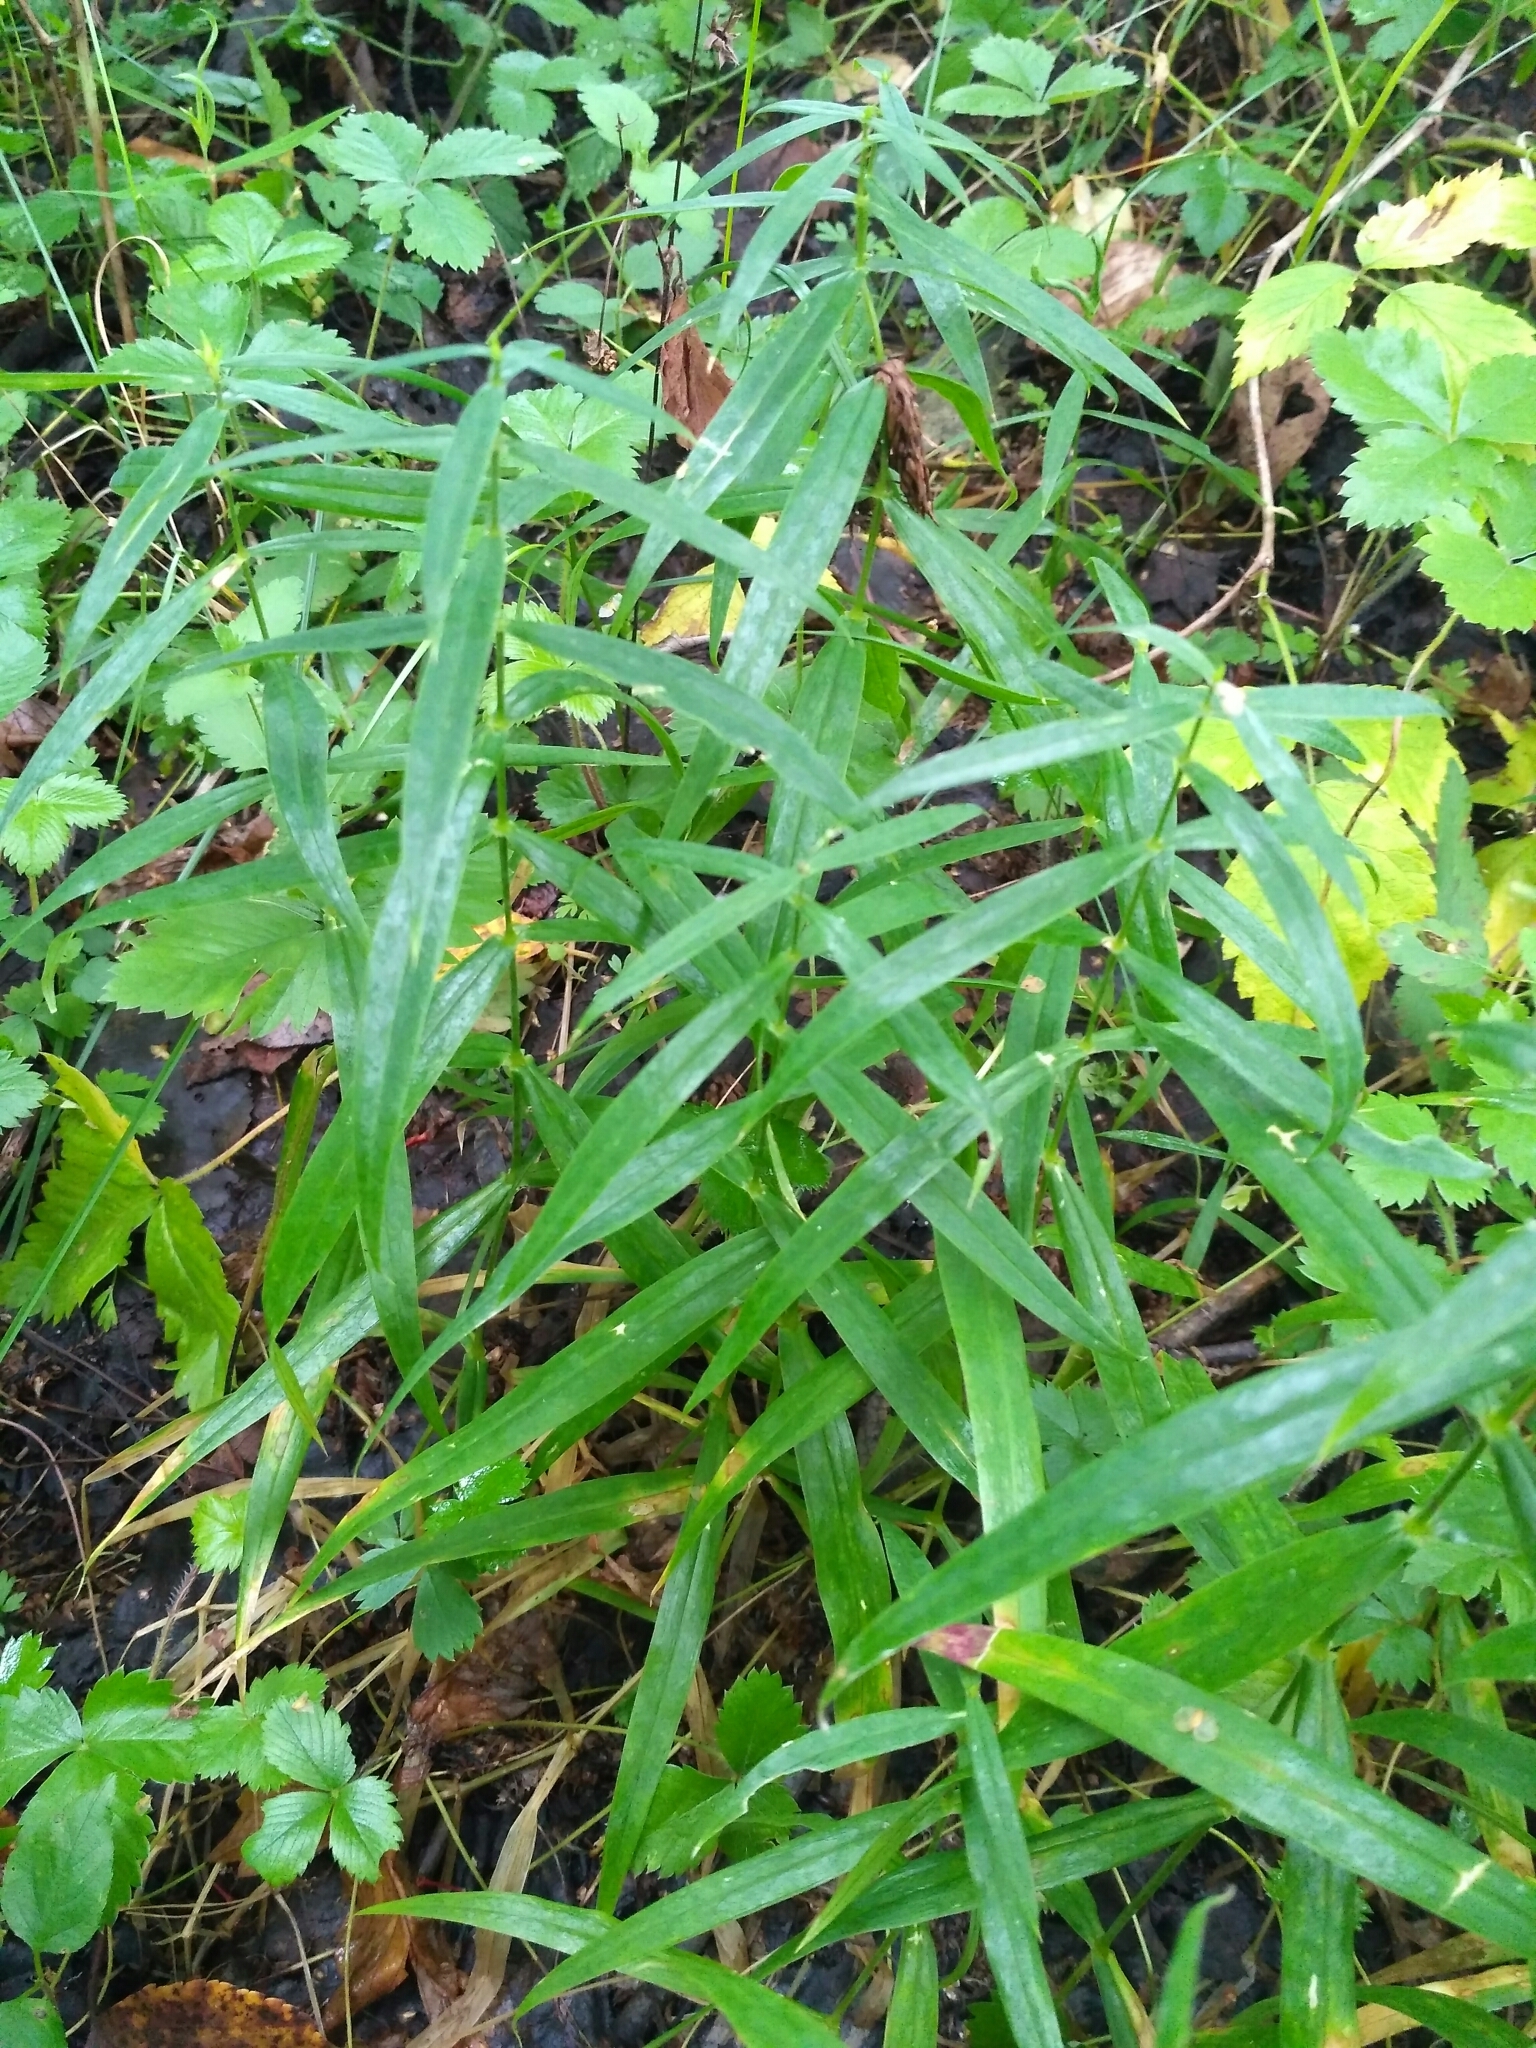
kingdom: Plantae
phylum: Tracheophyta
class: Magnoliopsida
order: Caryophyllales
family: Caryophyllaceae
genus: Rabelera
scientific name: Rabelera holostea
